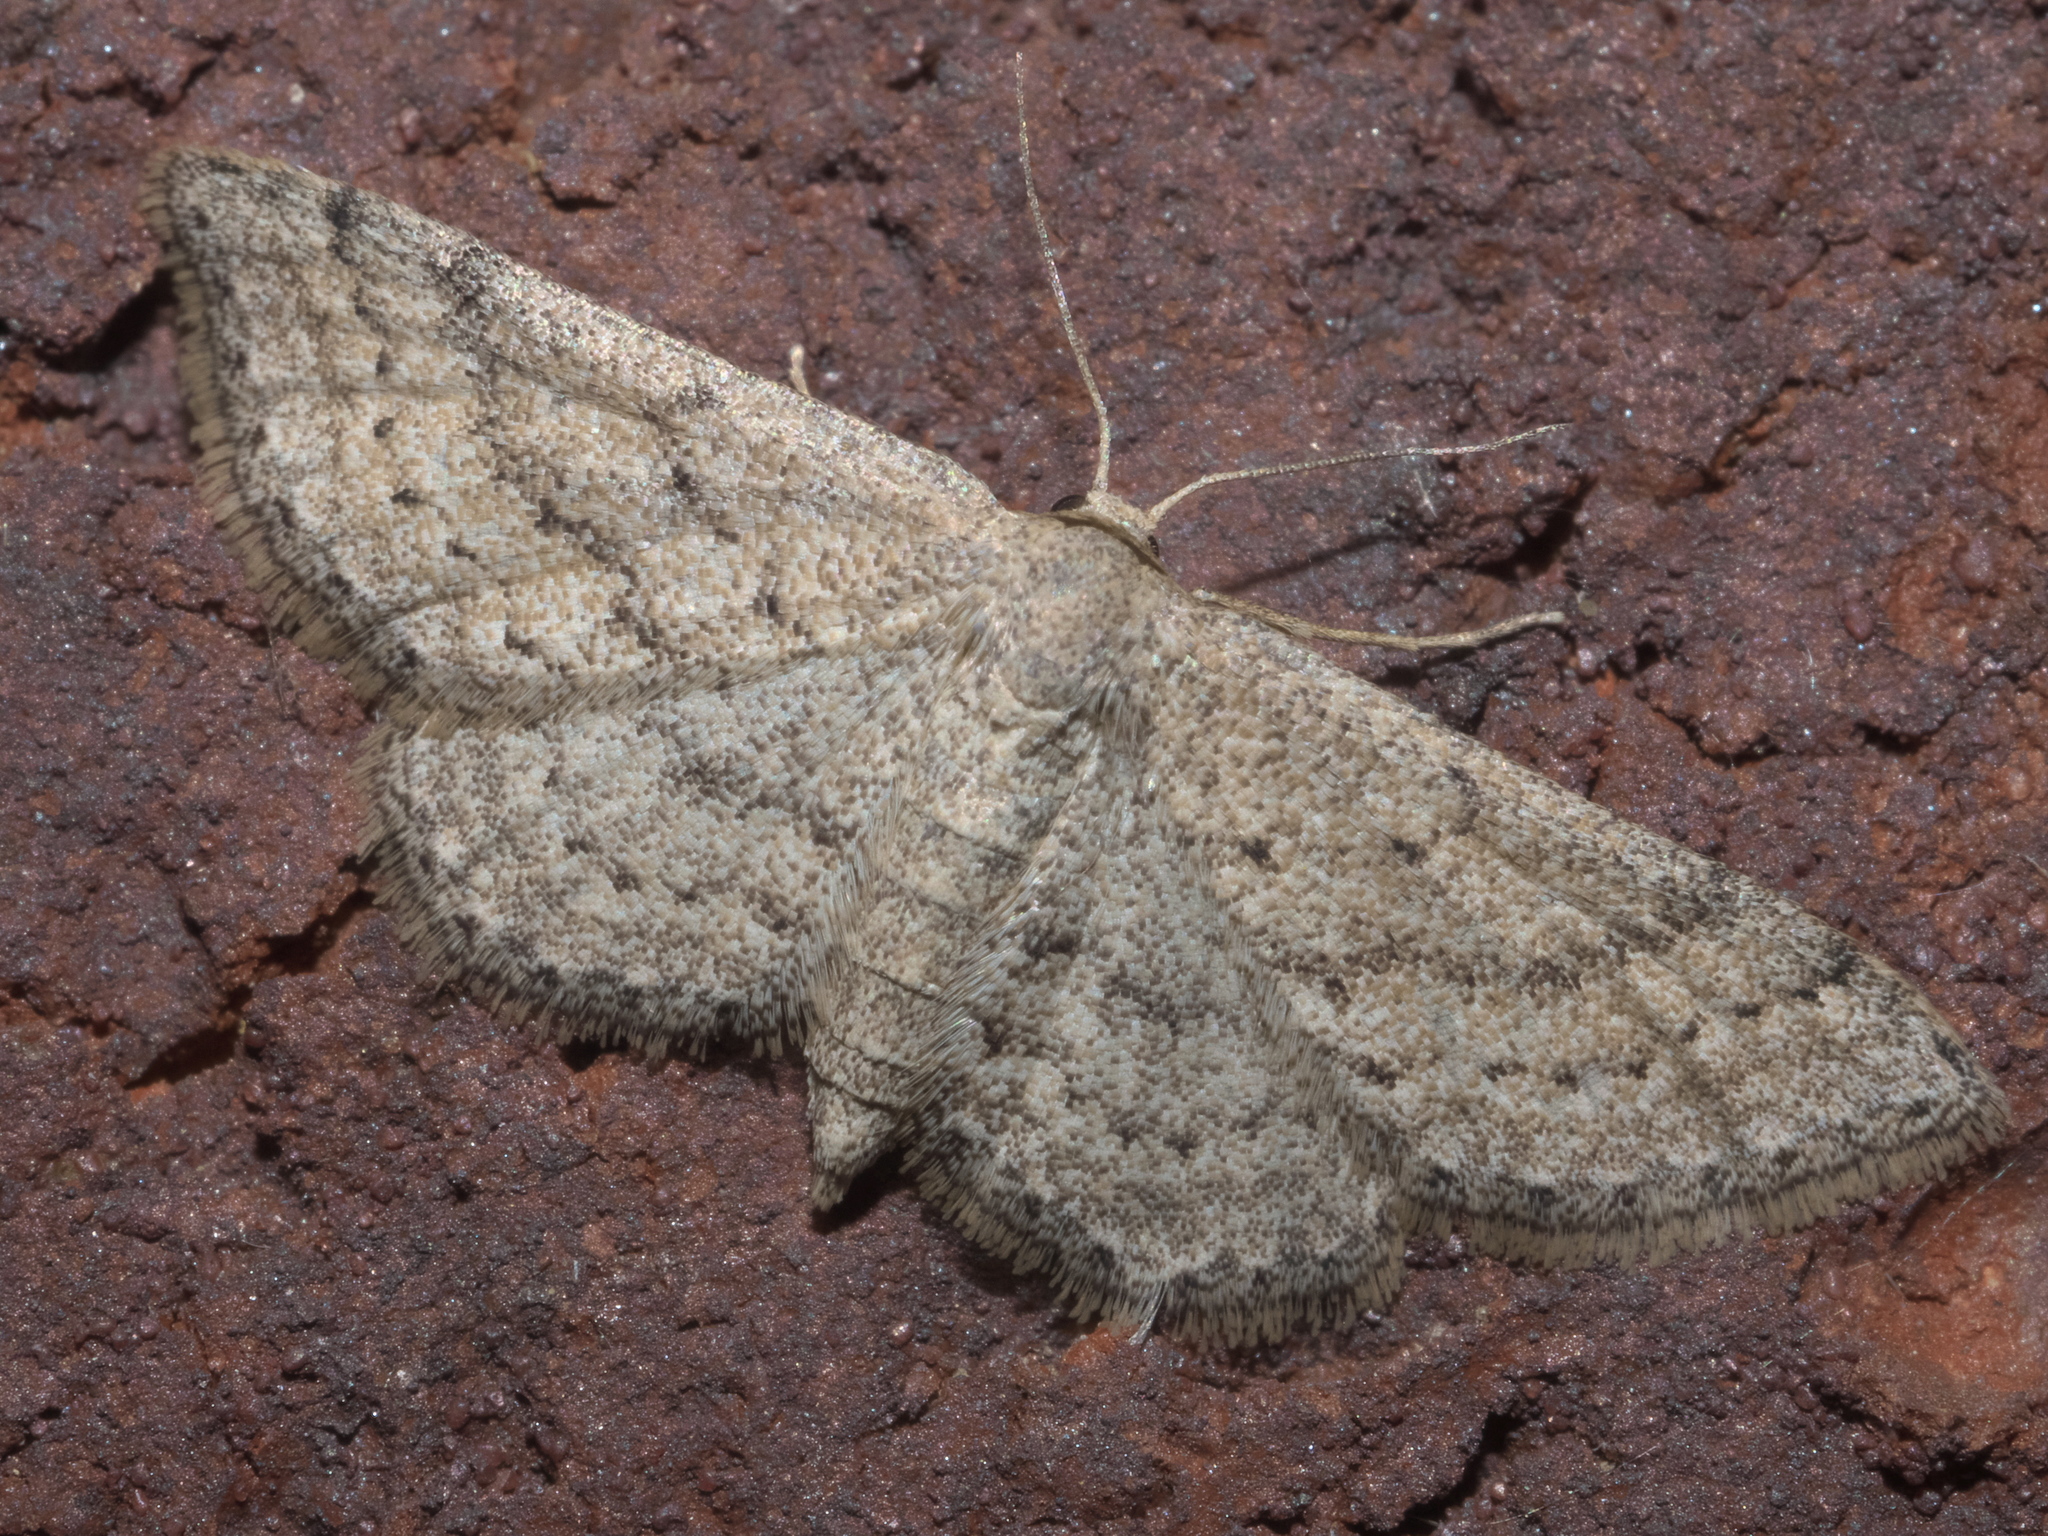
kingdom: Animalia
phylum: Arthropoda
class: Insecta
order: Lepidoptera
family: Geometridae
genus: Lobocleta
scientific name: Lobocleta ossularia
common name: Drab brown wave
